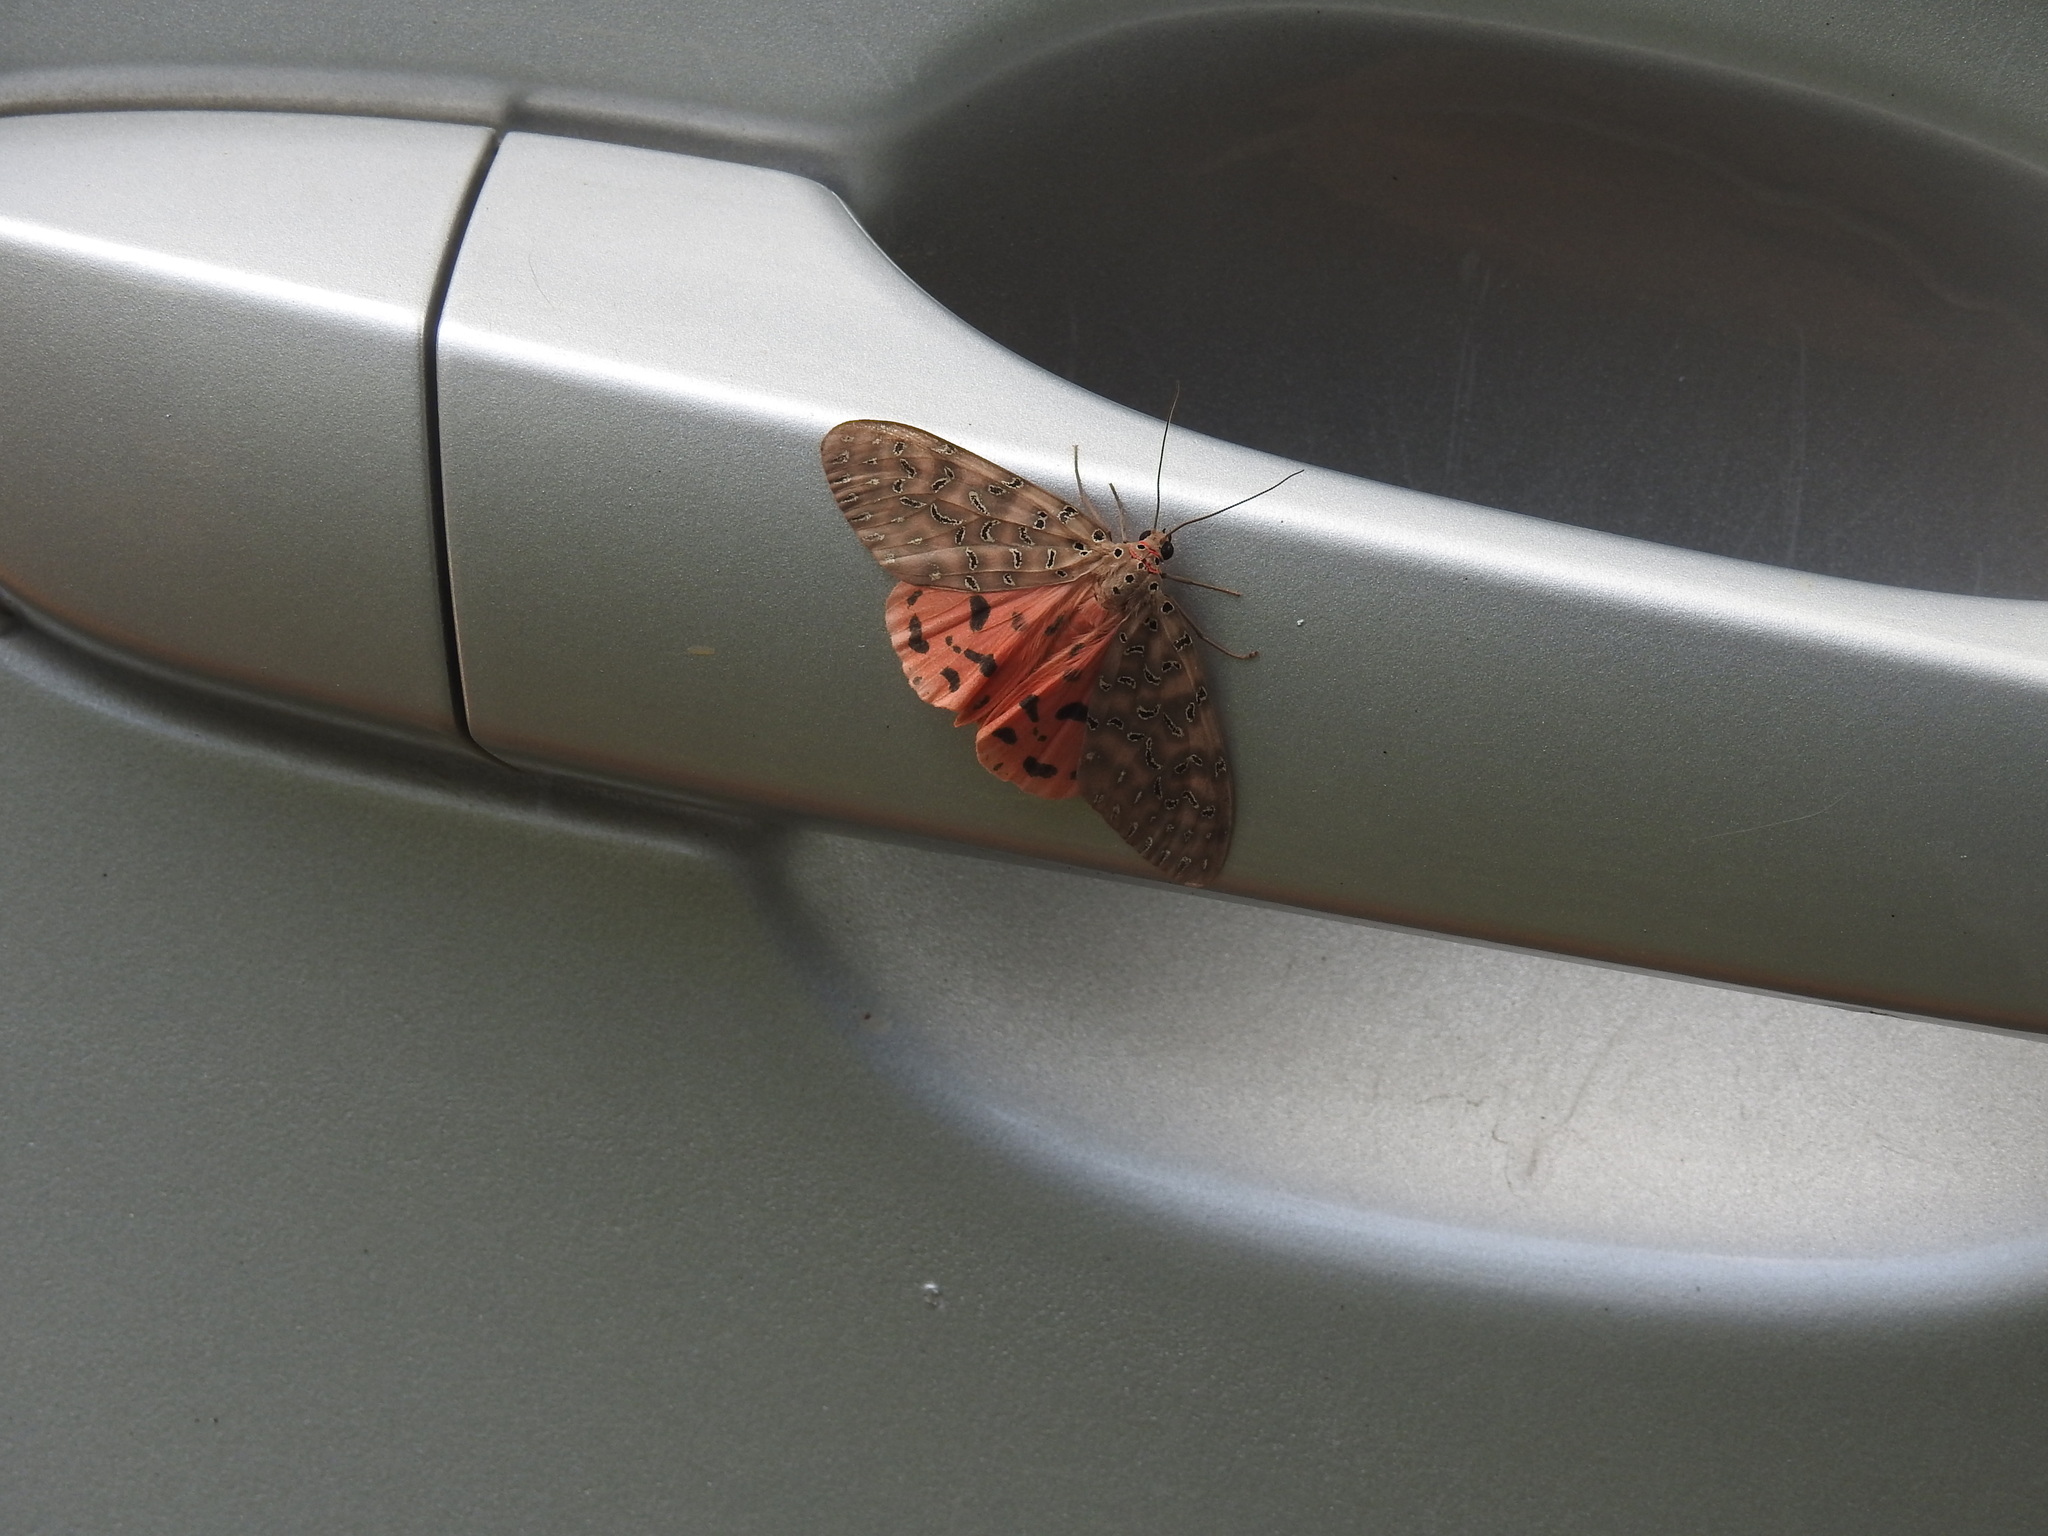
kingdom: Animalia
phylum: Arthropoda
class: Insecta
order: Lepidoptera
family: Erebidae
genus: Mangina
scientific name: Mangina
